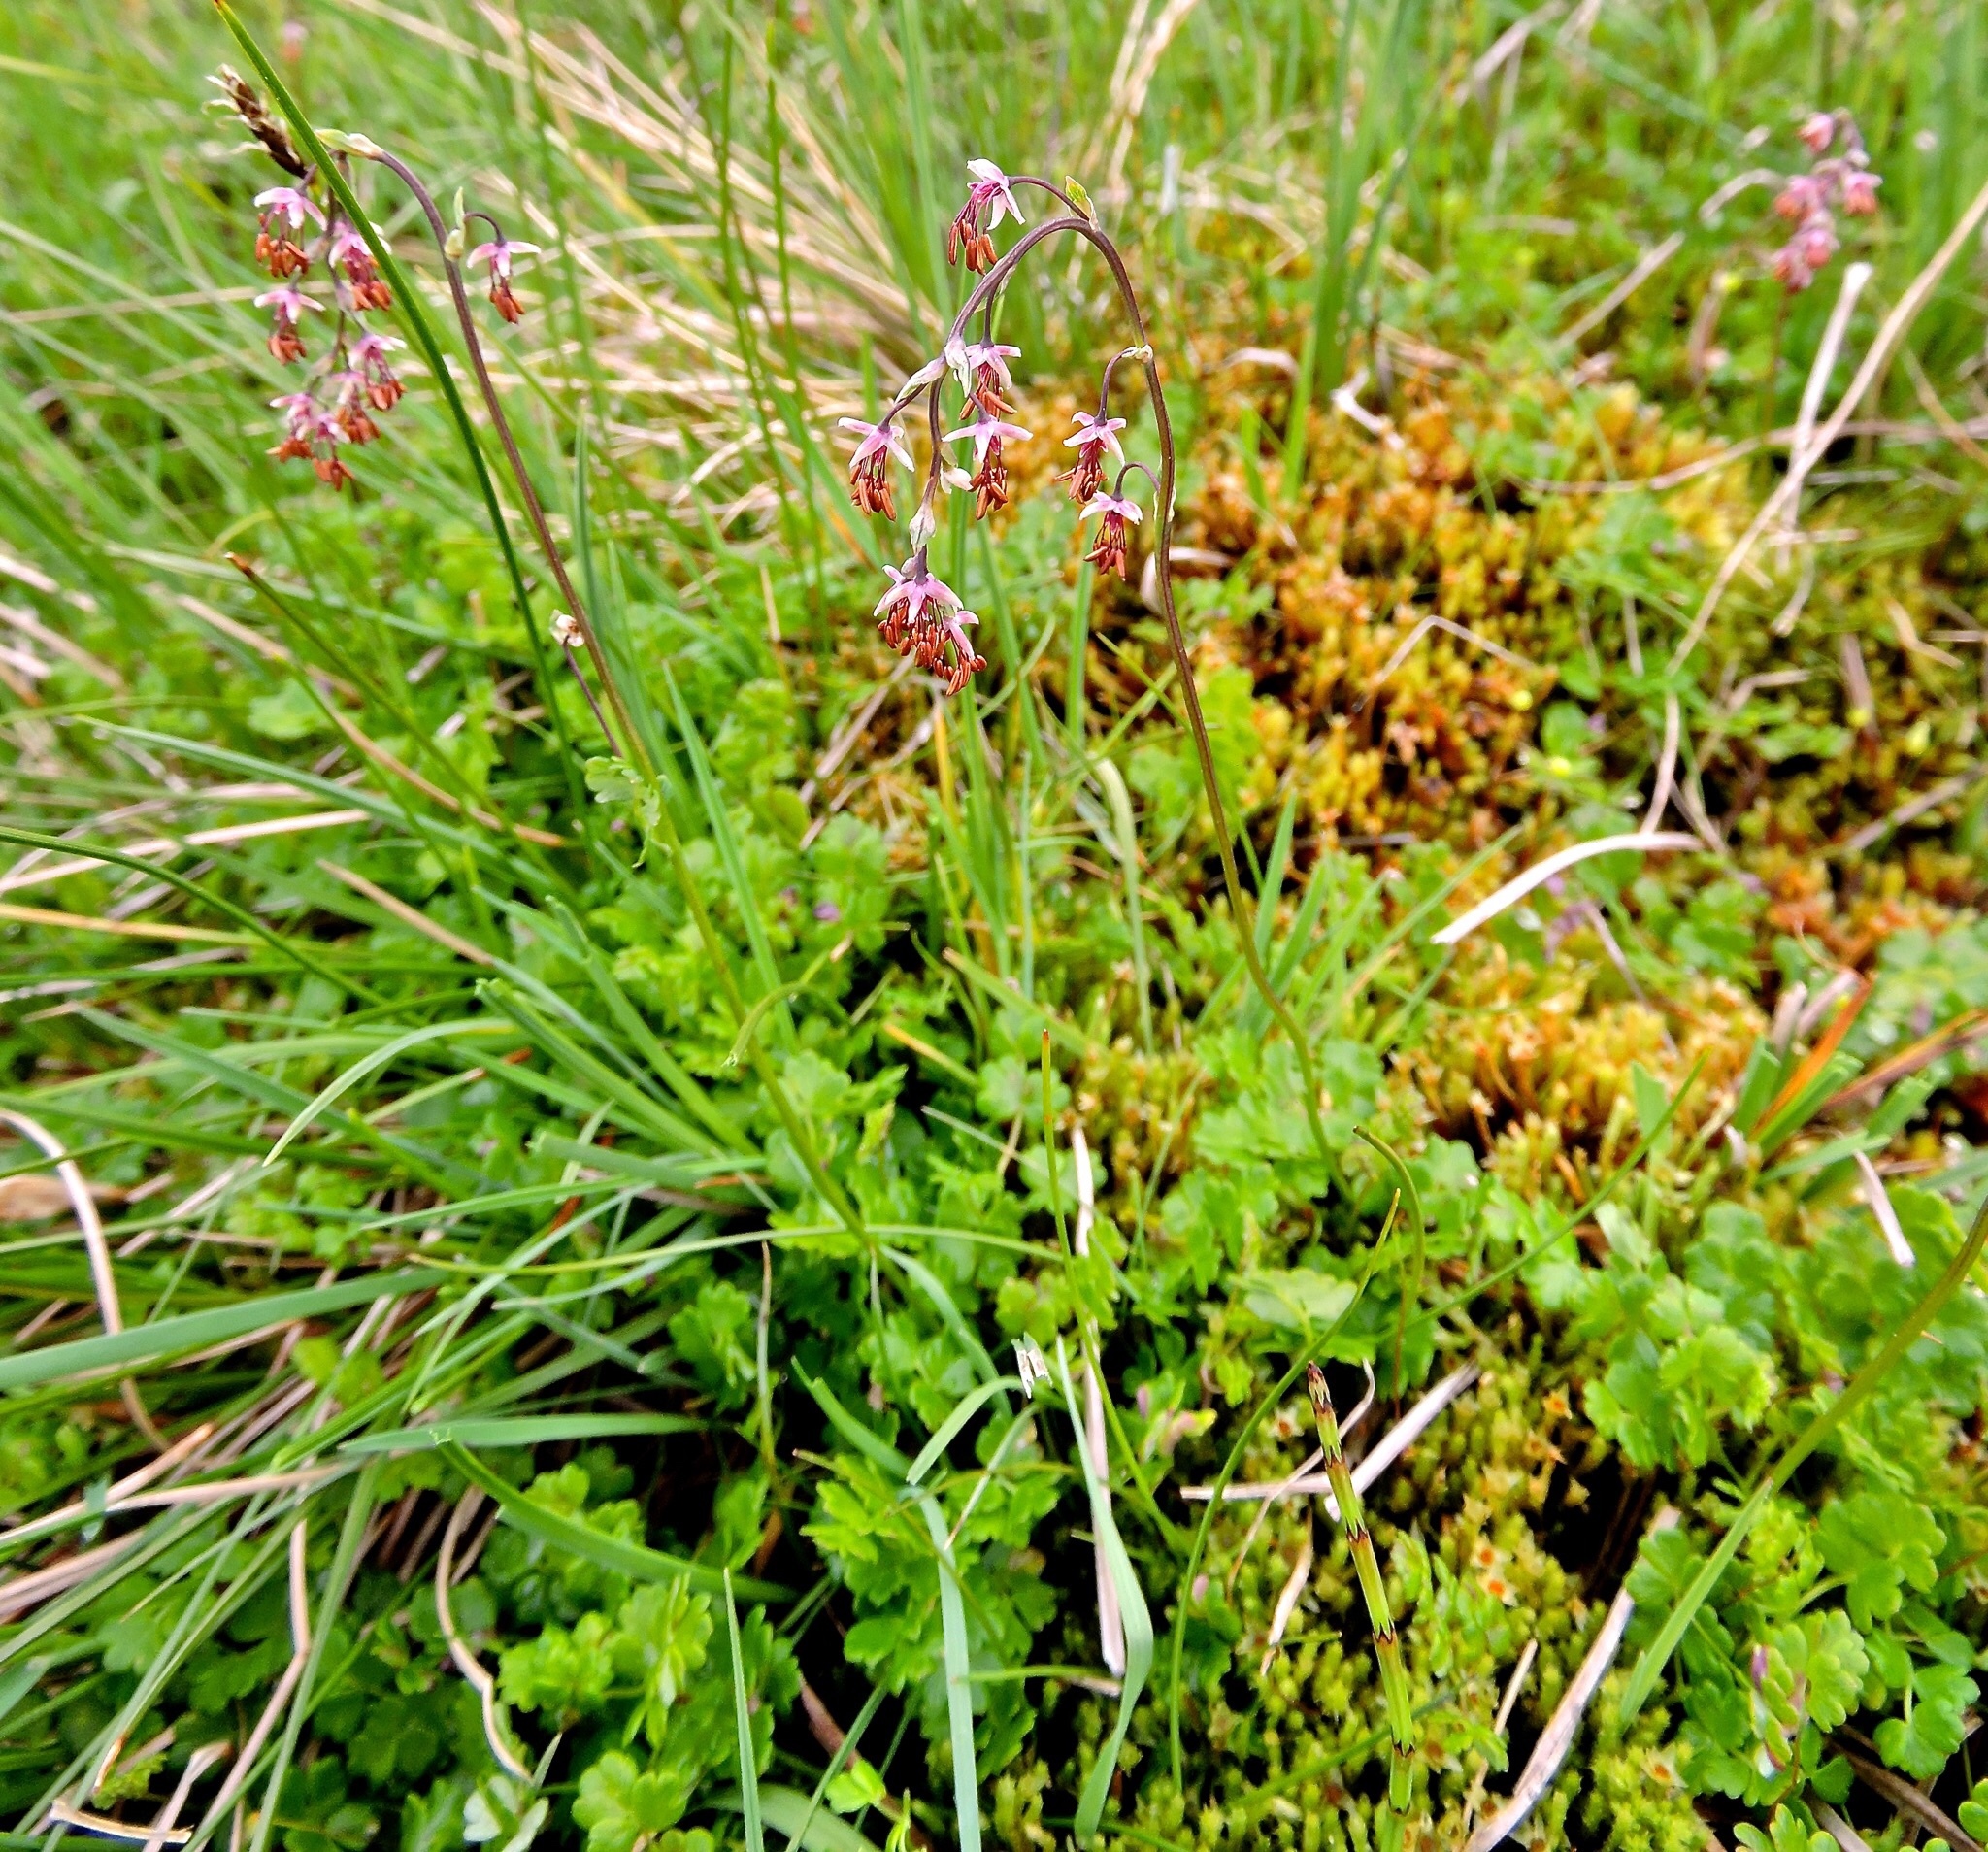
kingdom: Plantae
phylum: Tracheophyta
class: Magnoliopsida
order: Ranunculales
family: Ranunculaceae
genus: Thalictrum
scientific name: Thalictrum alpinum
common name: Alpine meadow-rue
